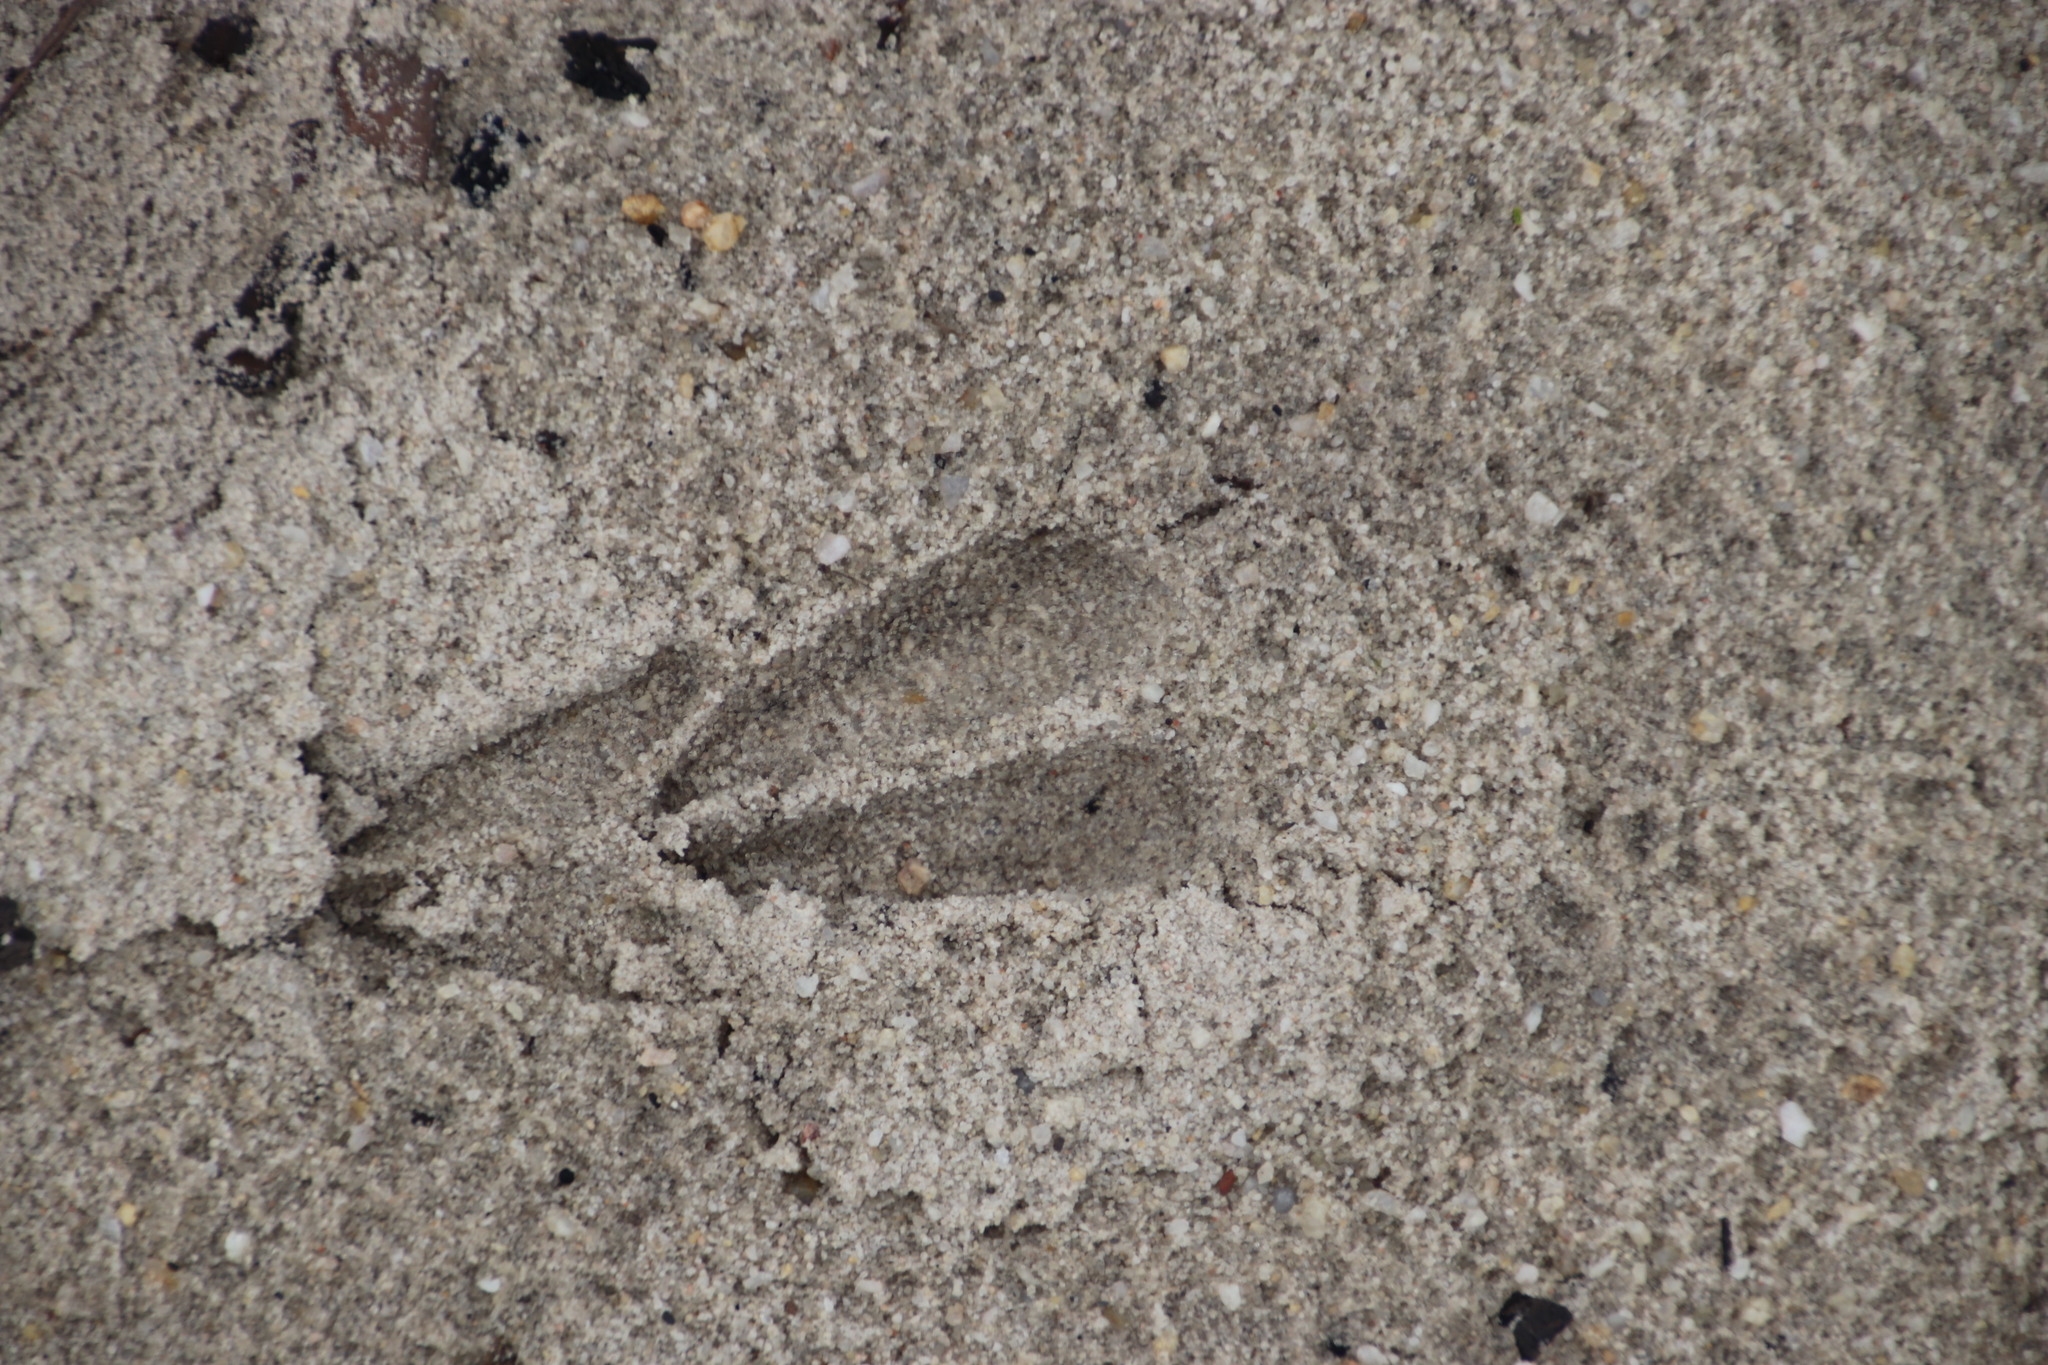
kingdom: Animalia
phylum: Chordata
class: Mammalia
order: Artiodactyla
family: Bovidae
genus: Raphicerus
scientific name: Raphicerus campestris
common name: Steenbok
